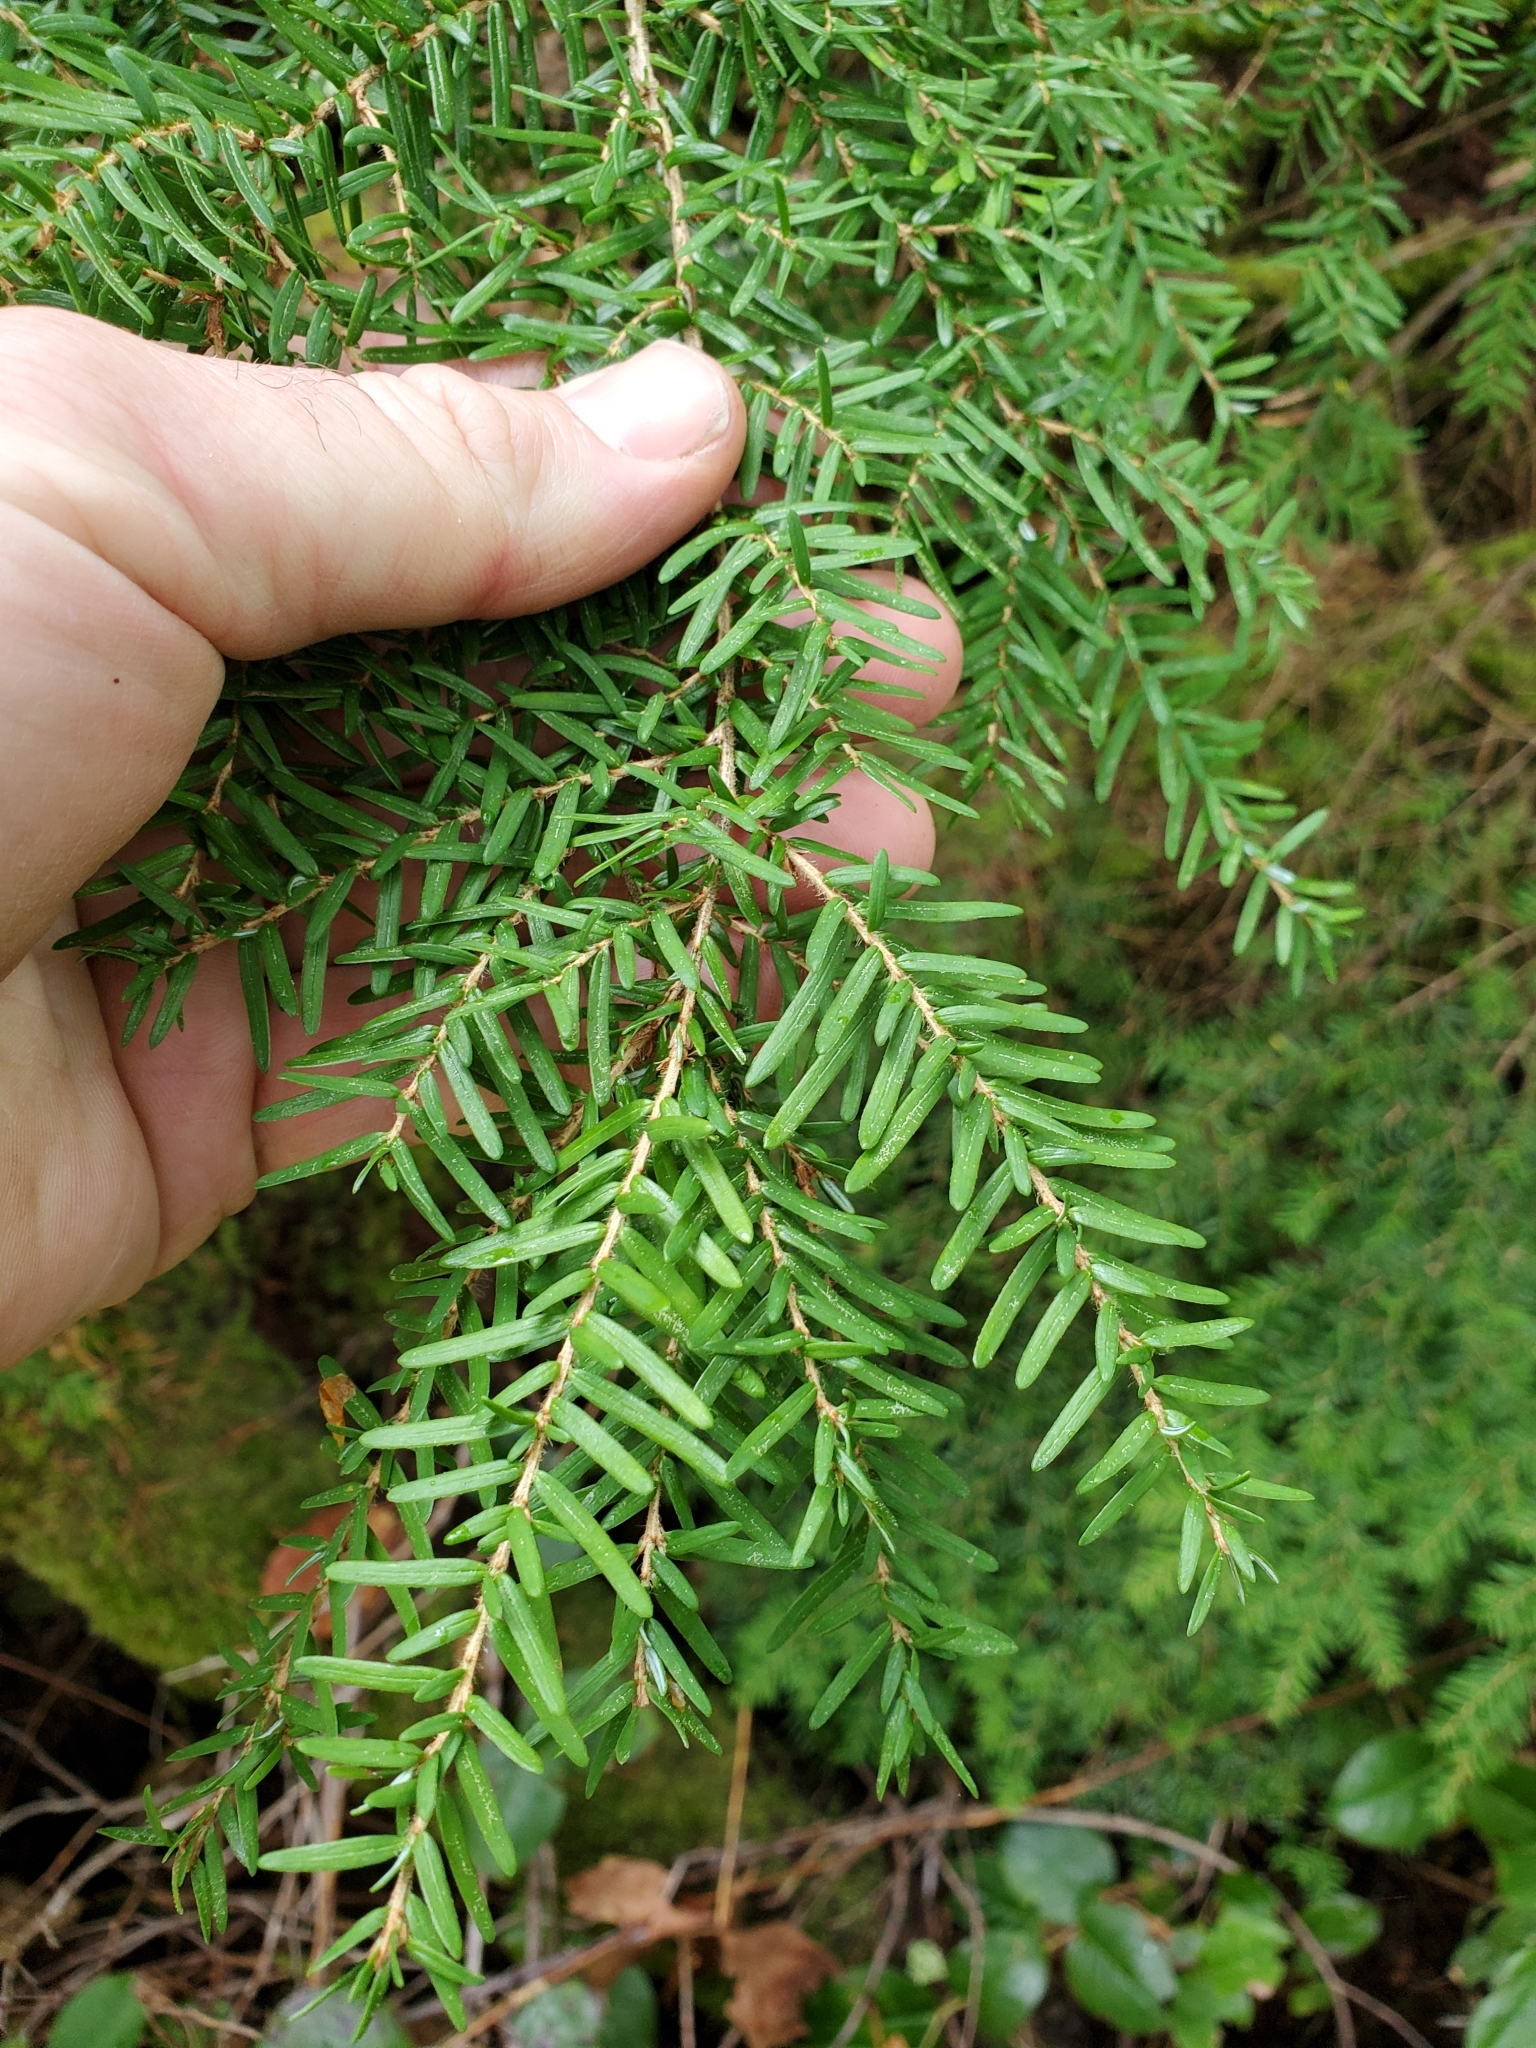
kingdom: Plantae
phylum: Tracheophyta
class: Pinopsida
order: Pinales
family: Pinaceae
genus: Tsuga
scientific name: Tsuga heterophylla
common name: Western hemlock
